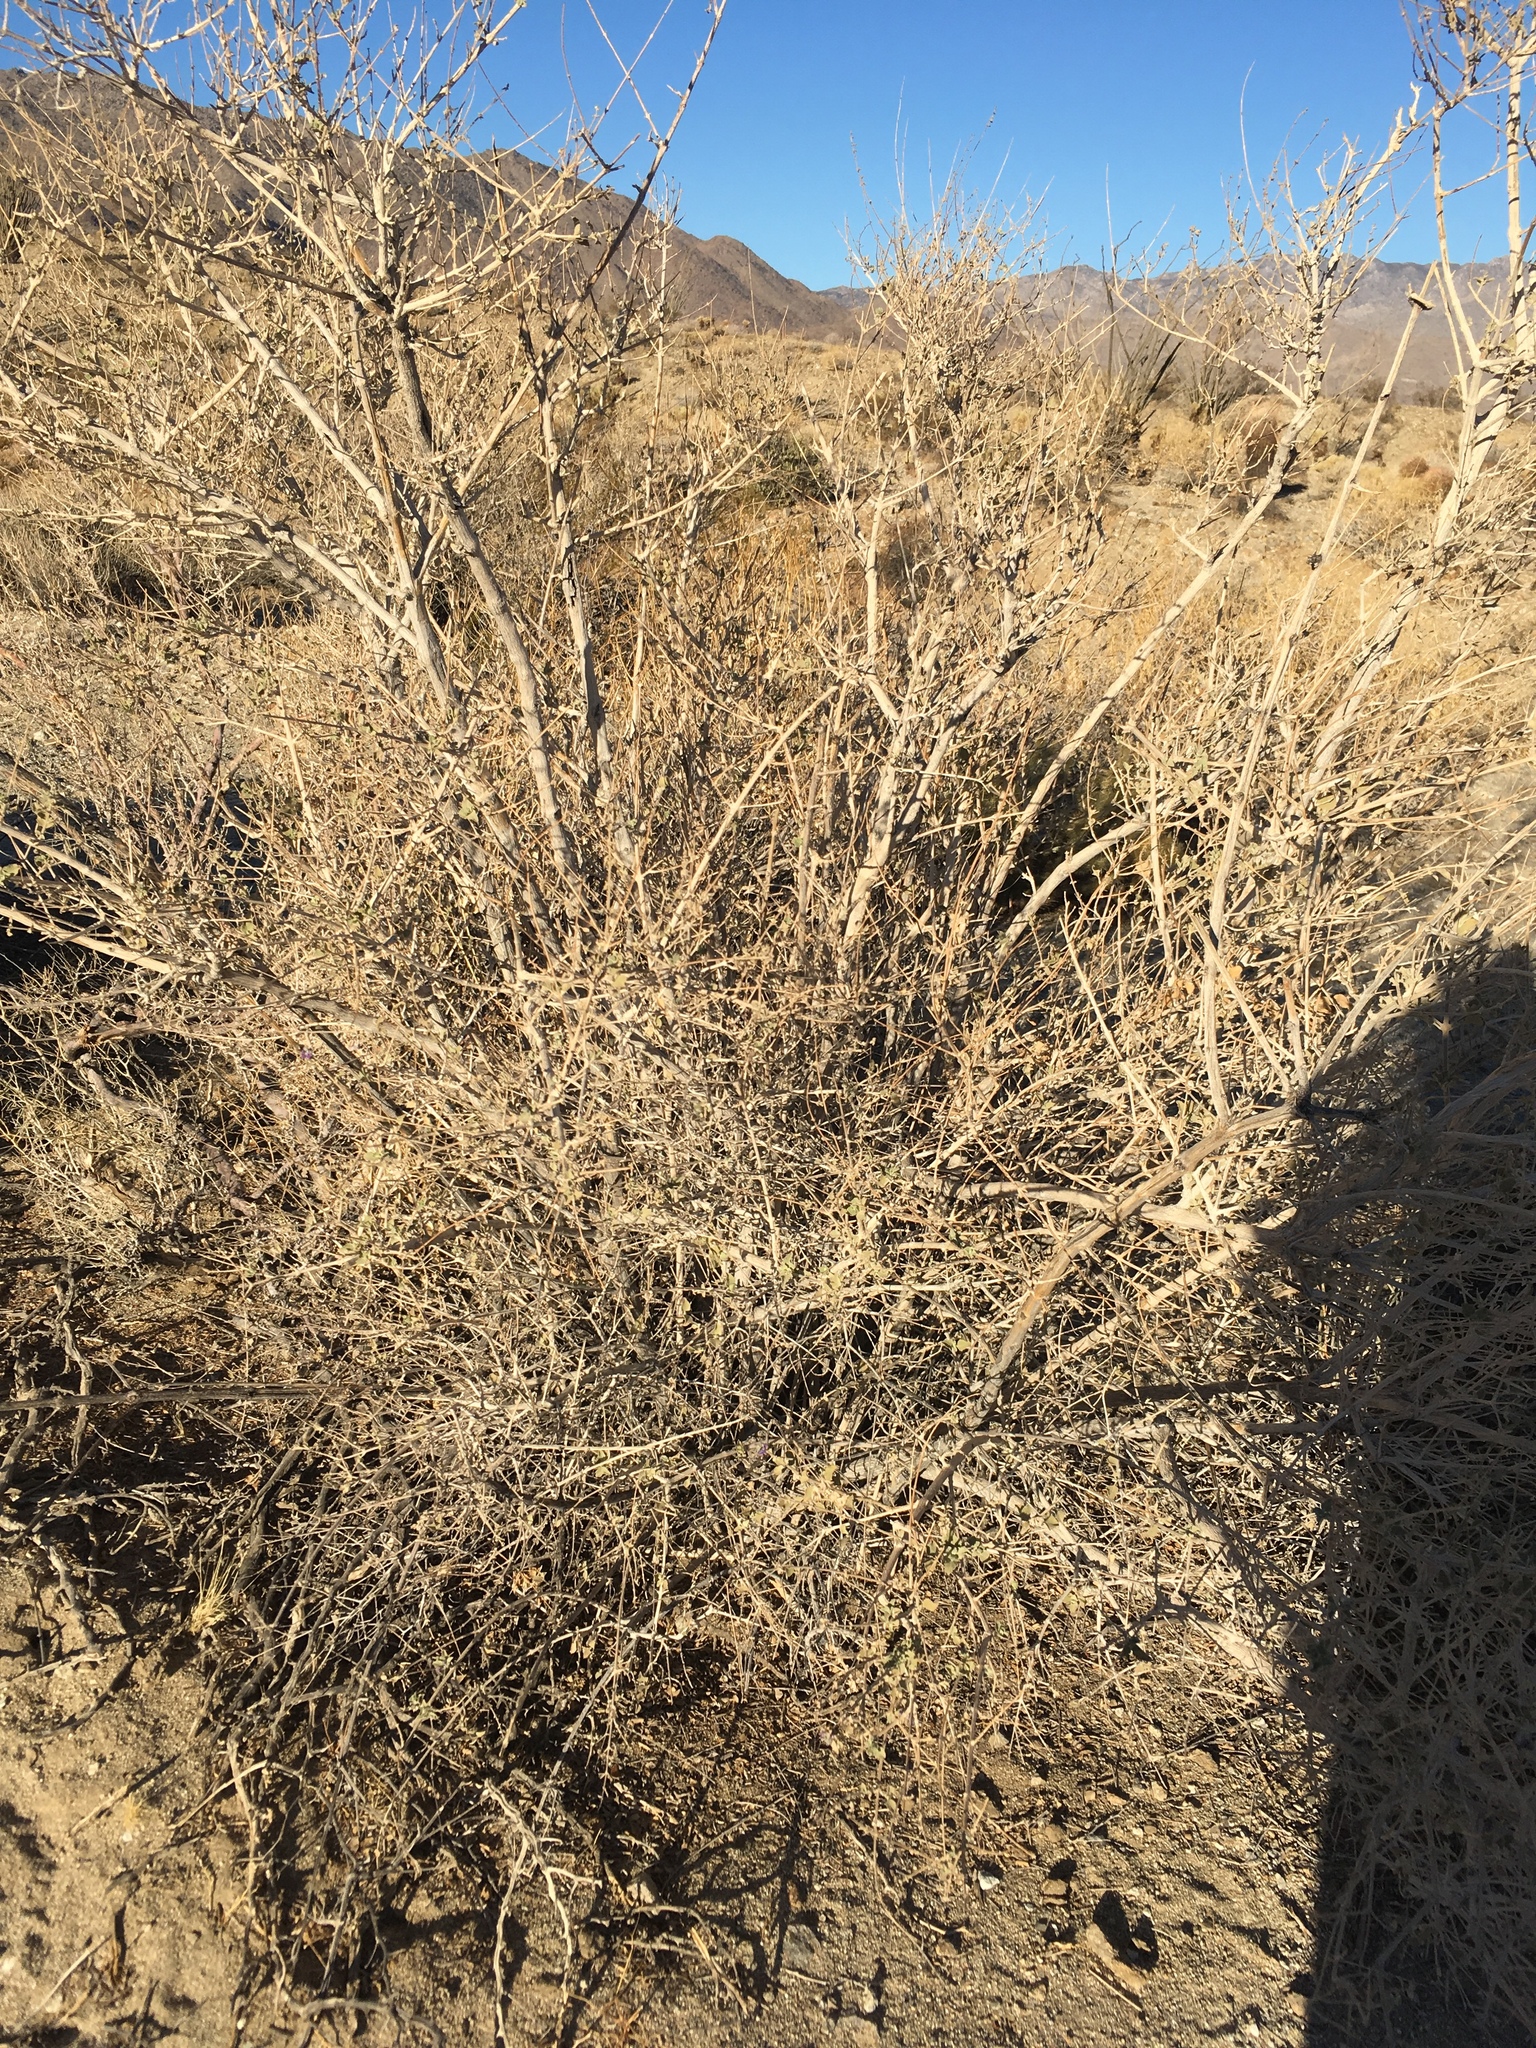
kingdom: Plantae
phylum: Tracheophyta
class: Magnoliopsida
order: Lamiales
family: Lamiaceae
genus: Condea
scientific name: Condea emoryi
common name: Chia
